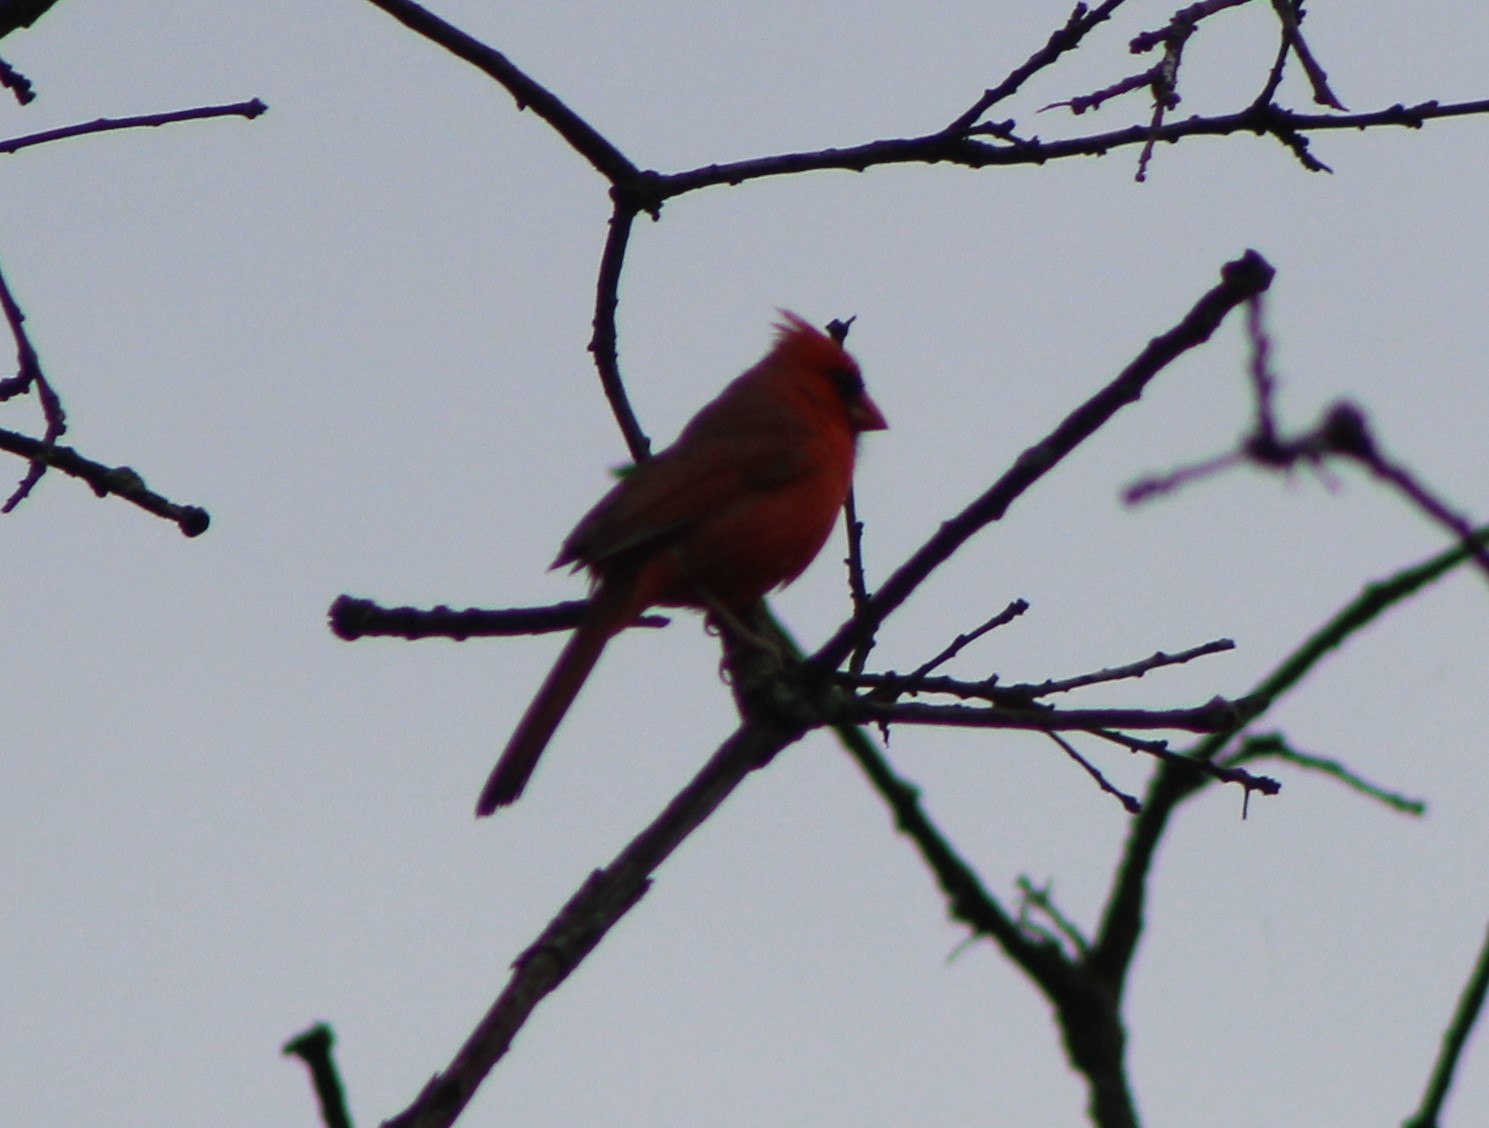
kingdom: Animalia
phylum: Chordata
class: Aves
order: Passeriformes
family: Cardinalidae
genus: Cardinalis
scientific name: Cardinalis cardinalis
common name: Northern cardinal
